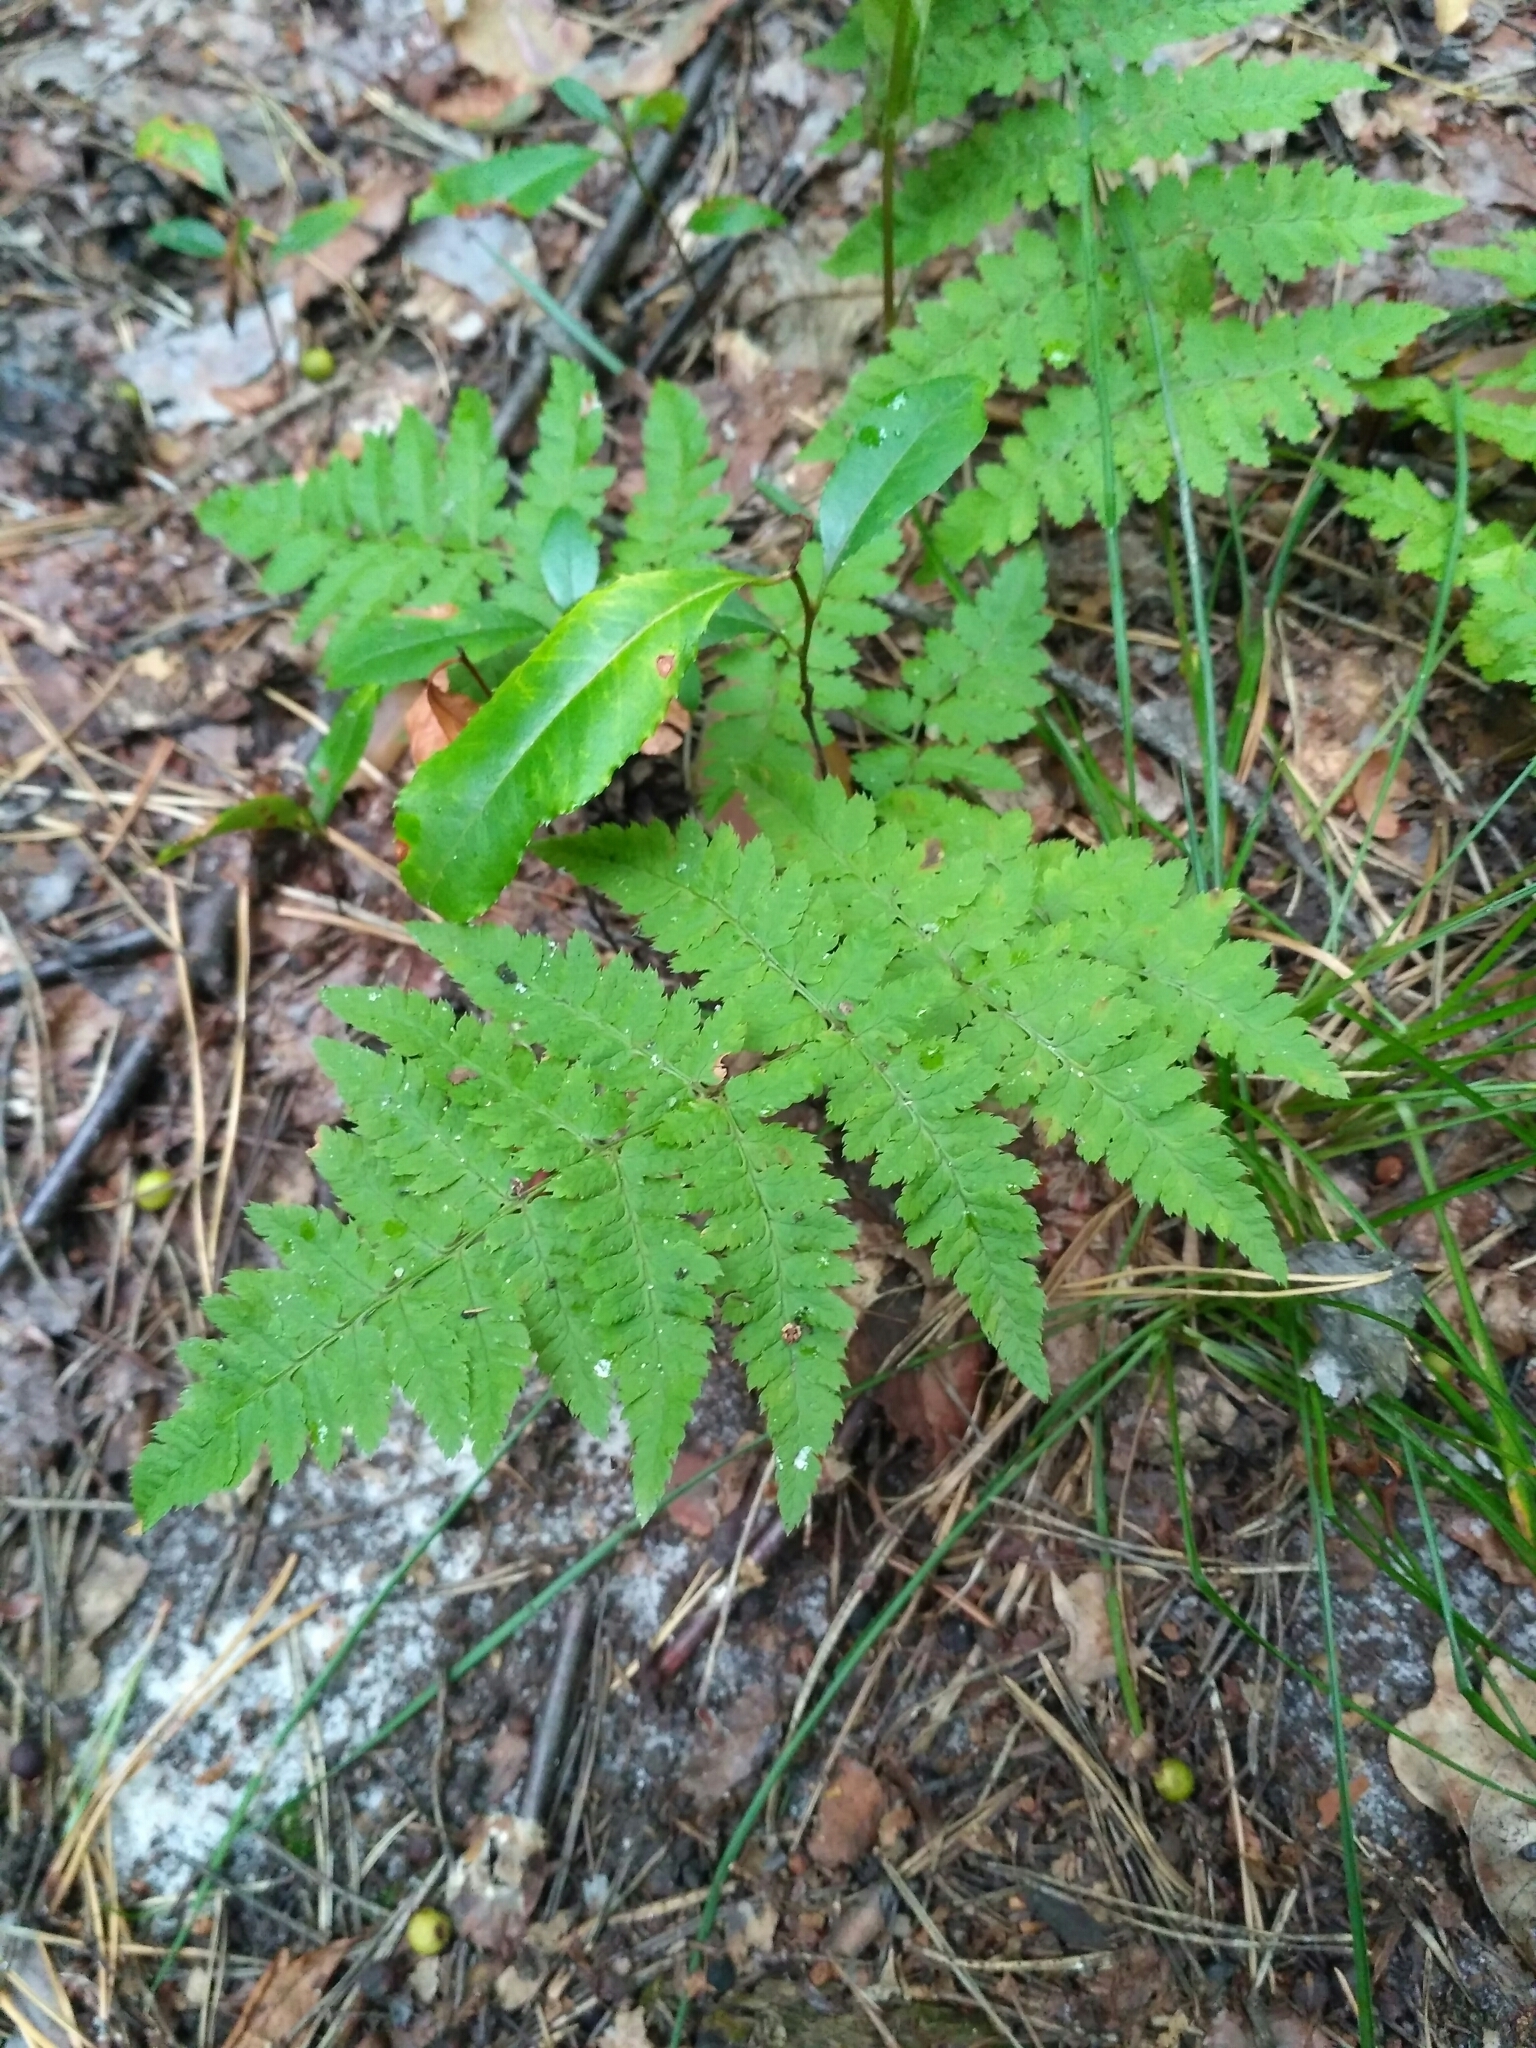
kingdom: Plantae
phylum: Tracheophyta
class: Polypodiopsida
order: Polypodiales
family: Dryopteridaceae
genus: Dryopteris
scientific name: Dryopteris carthusiana
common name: Narrow buckler-fern
